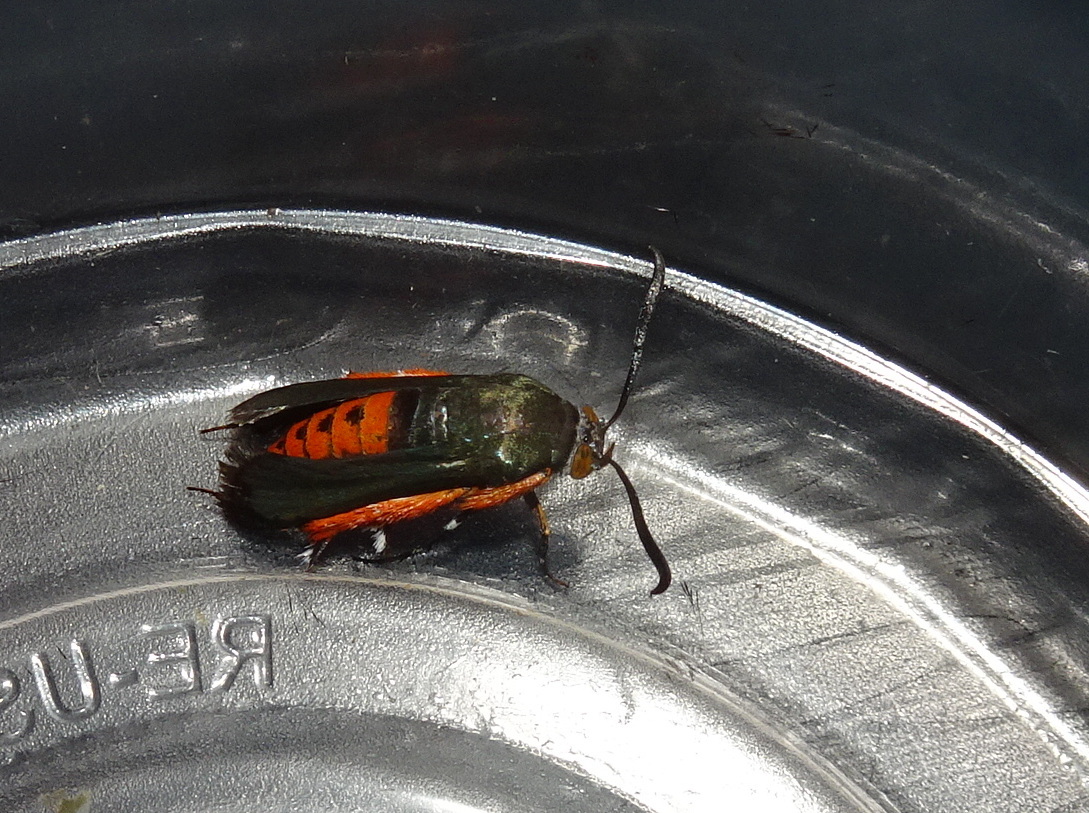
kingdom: Animalia
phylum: Arthropoda
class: Insecta
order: Lepidoptera
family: Sesiidae
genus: Eichlinia
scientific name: Eichlinia cucurbitae
